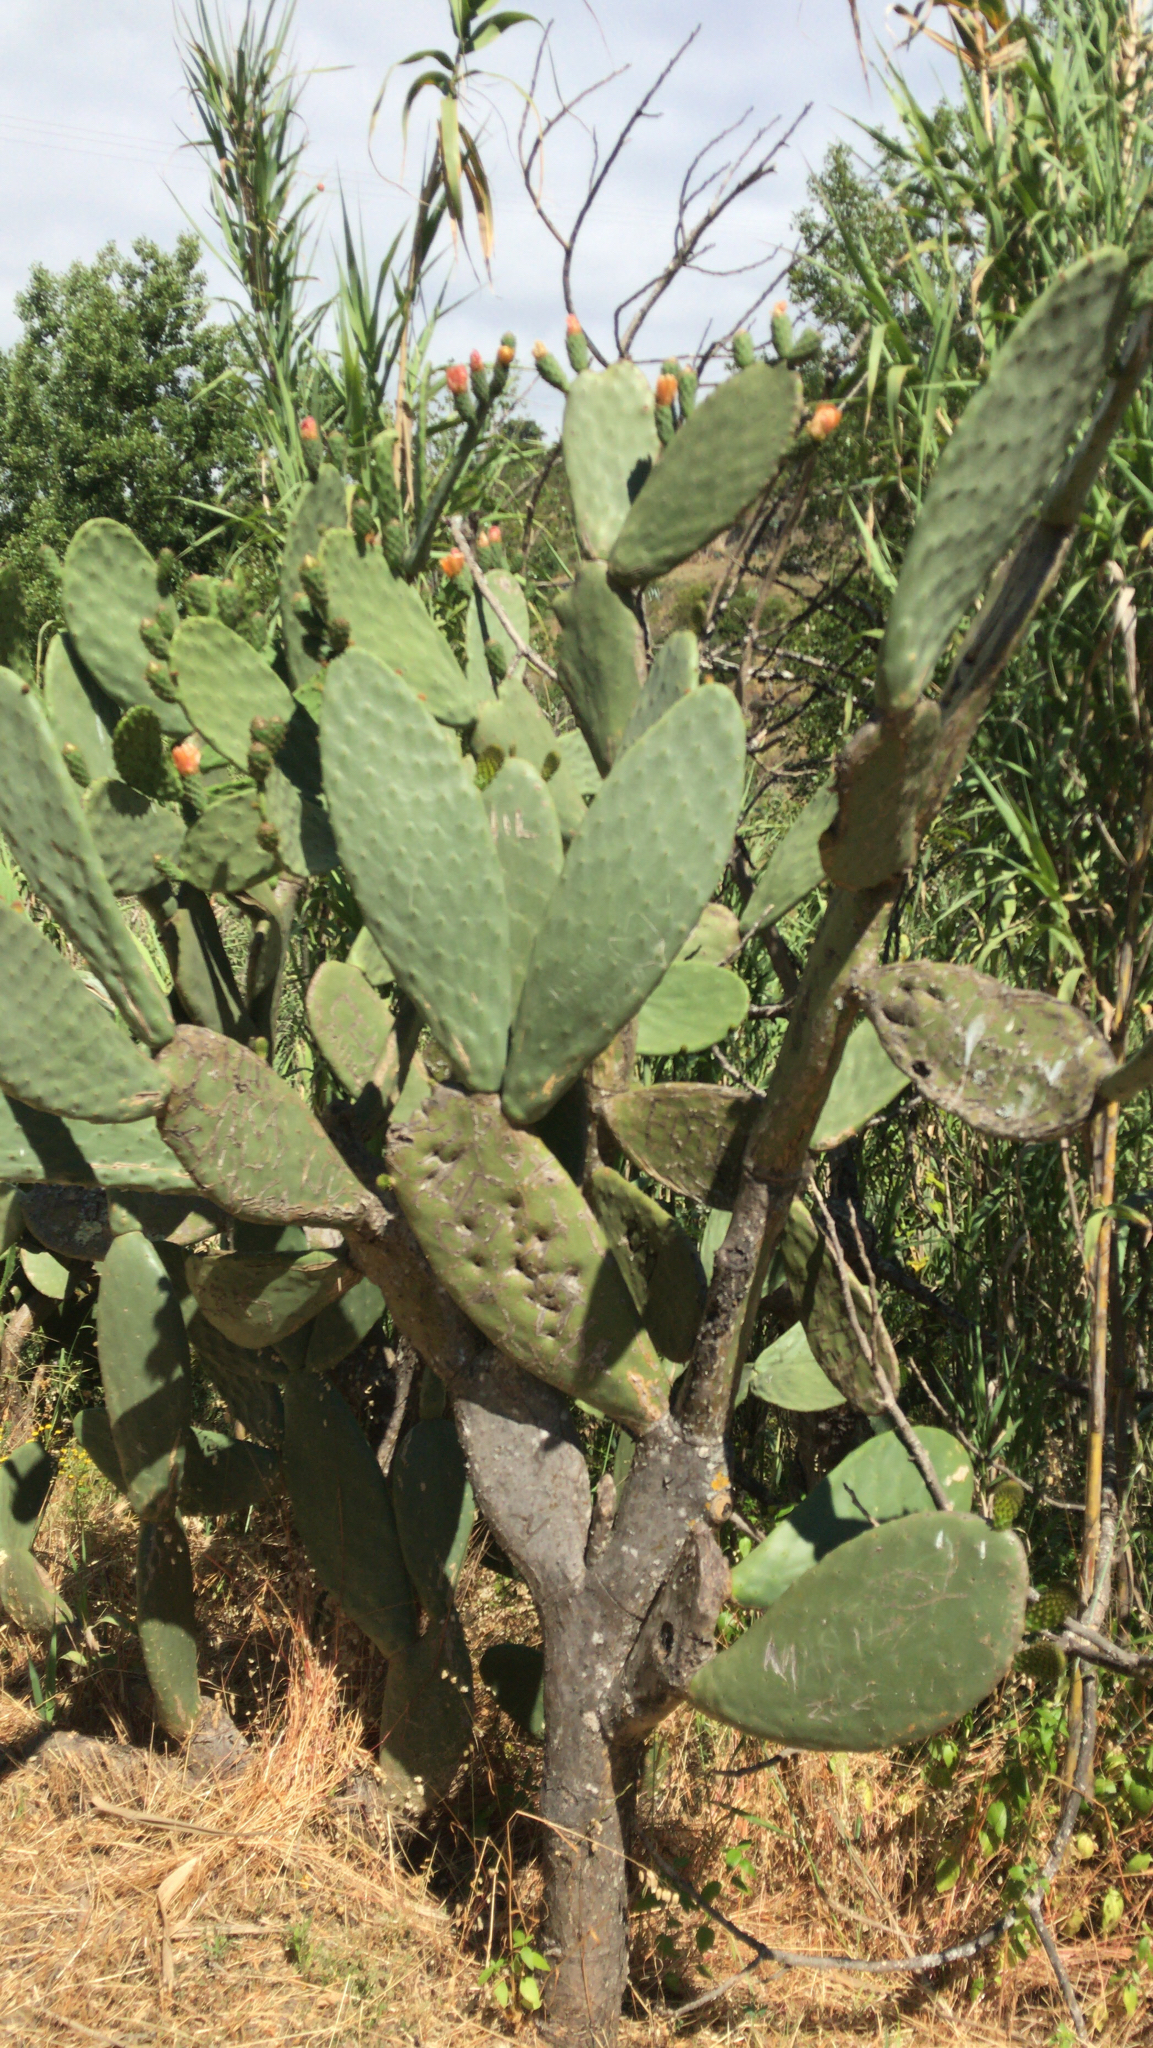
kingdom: Plantae
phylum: Tracheophyta
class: Magnoliopsida
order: Caryophyllales
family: Cactaceae
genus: Opuntia
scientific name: Opuntia ficus-indica
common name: Barbary fig
